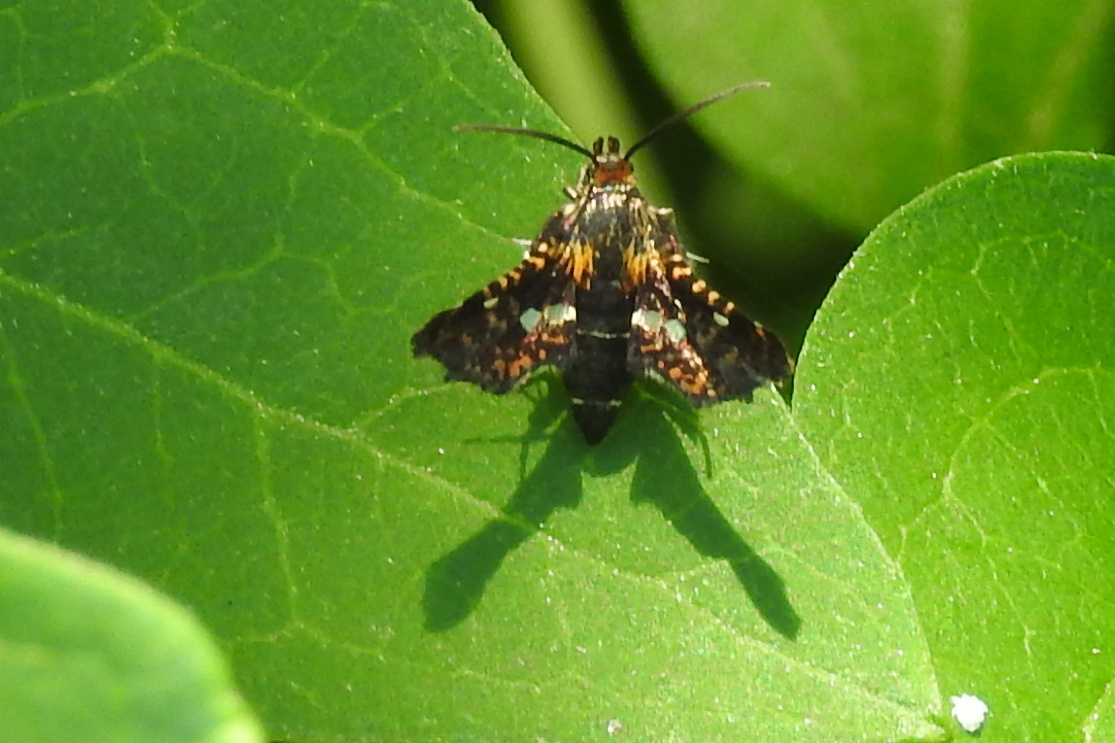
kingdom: Animalia
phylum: Arthropoda
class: Insecta
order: Lepidoptera
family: Thyrididae
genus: Thyris
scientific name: Thyris maculata
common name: Spotted thyris moth
